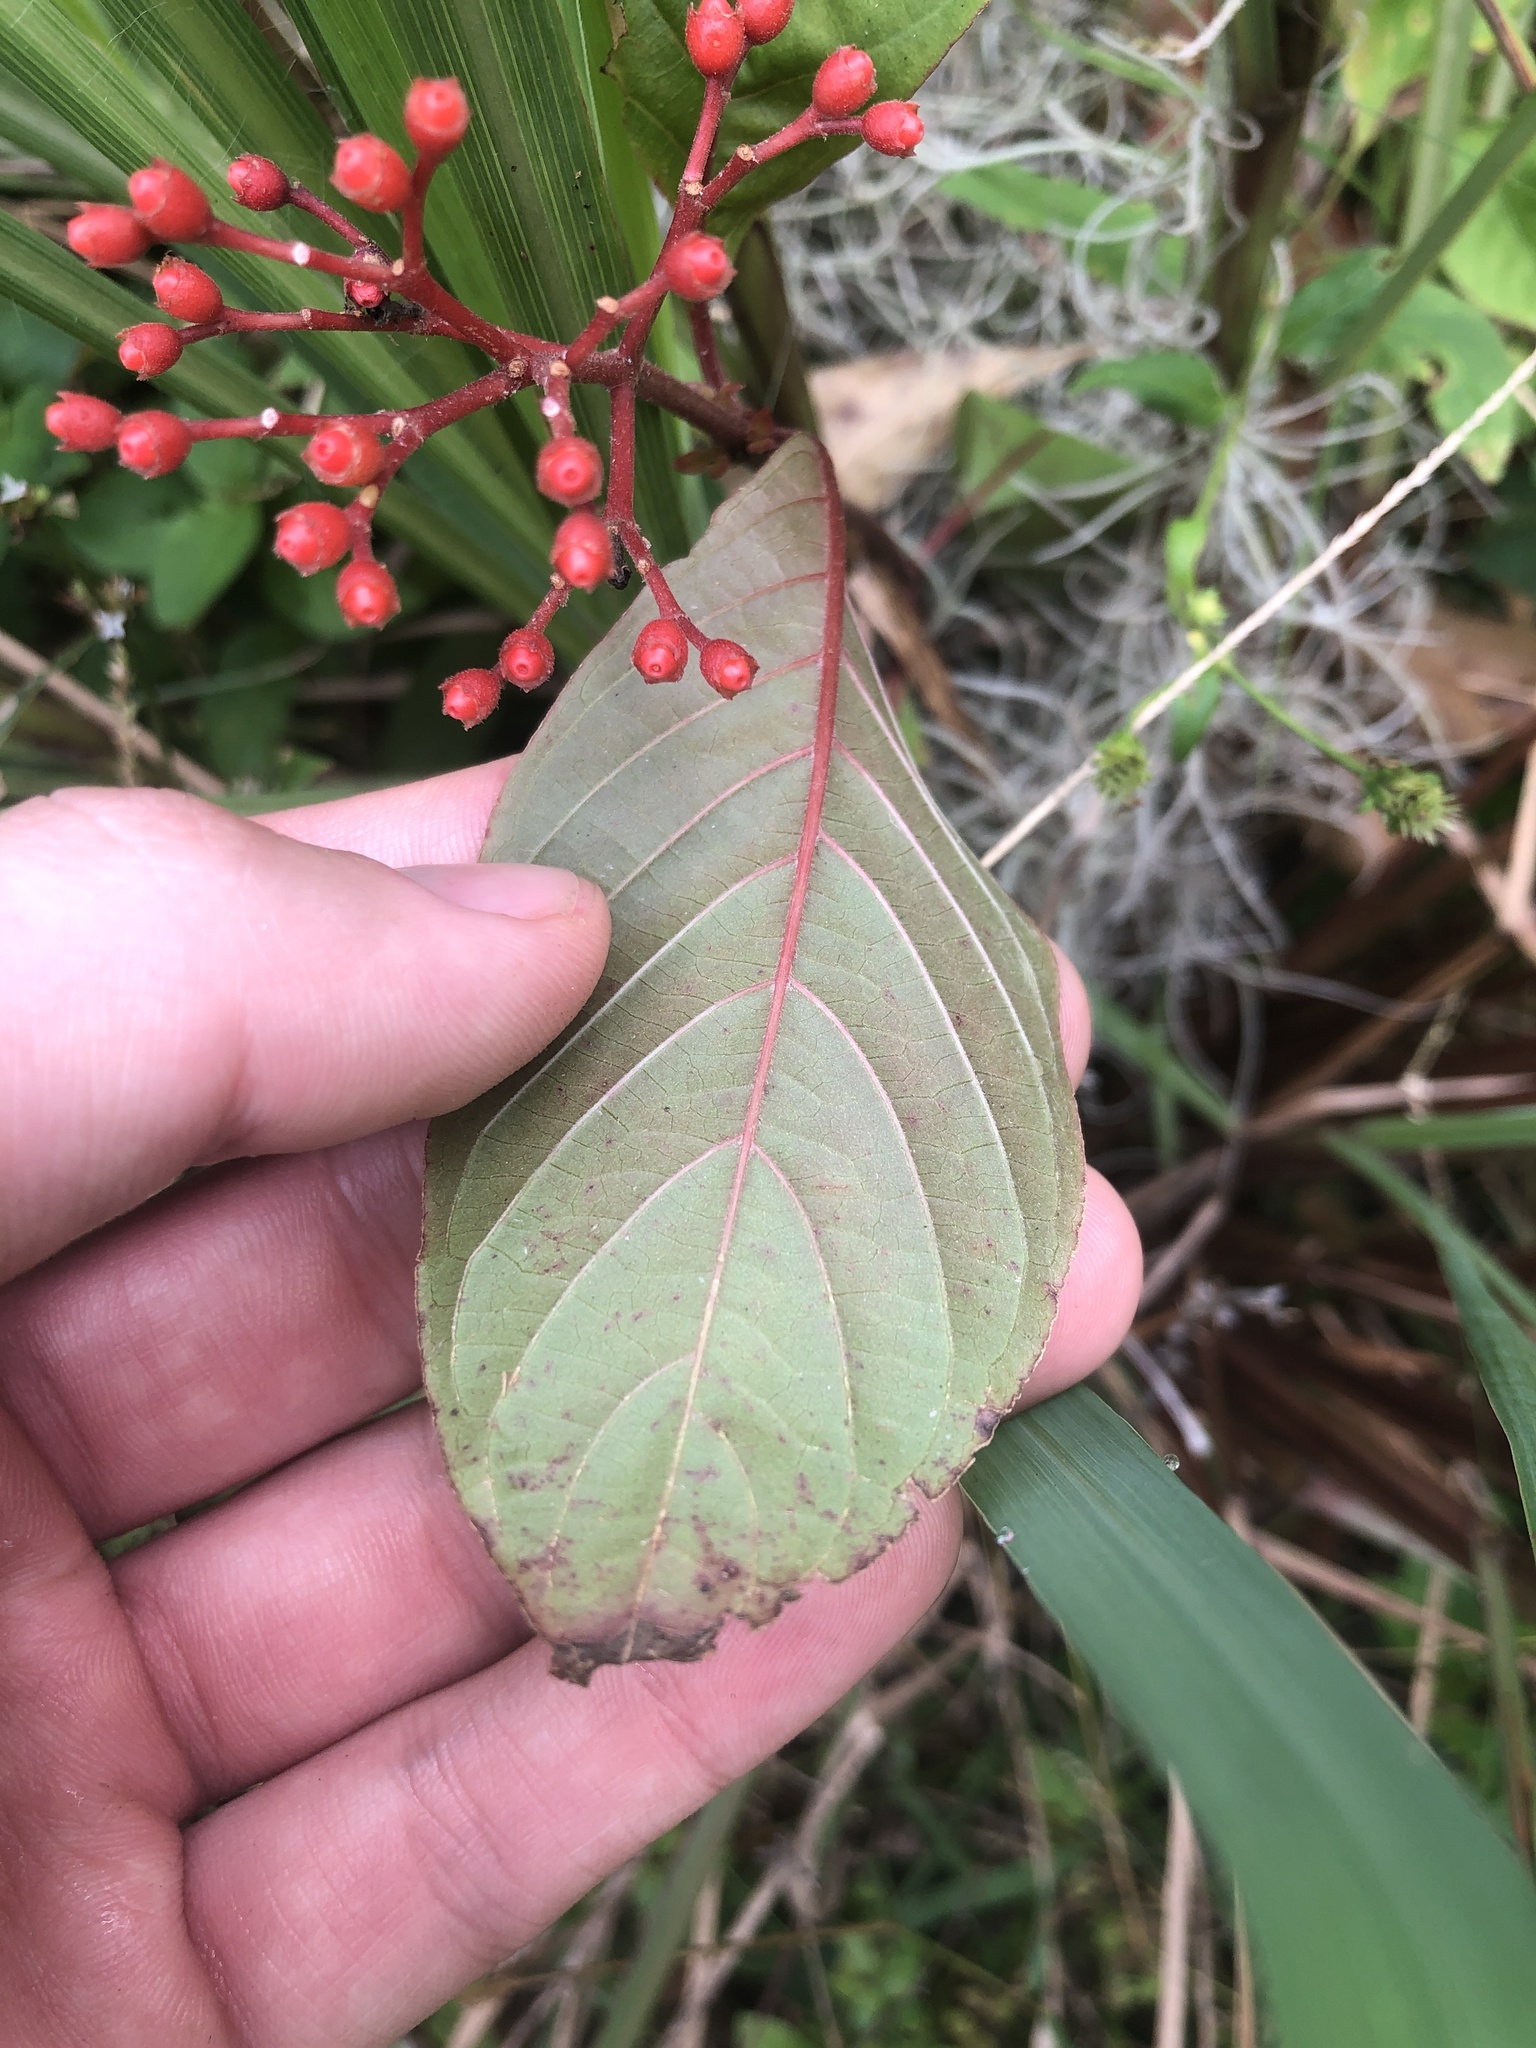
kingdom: Plantae
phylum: Tracheophyta
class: Magnoliopsida
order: Gentianales
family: Rubiaceae
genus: Hamelia
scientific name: Hamelia patens
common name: Redhead
